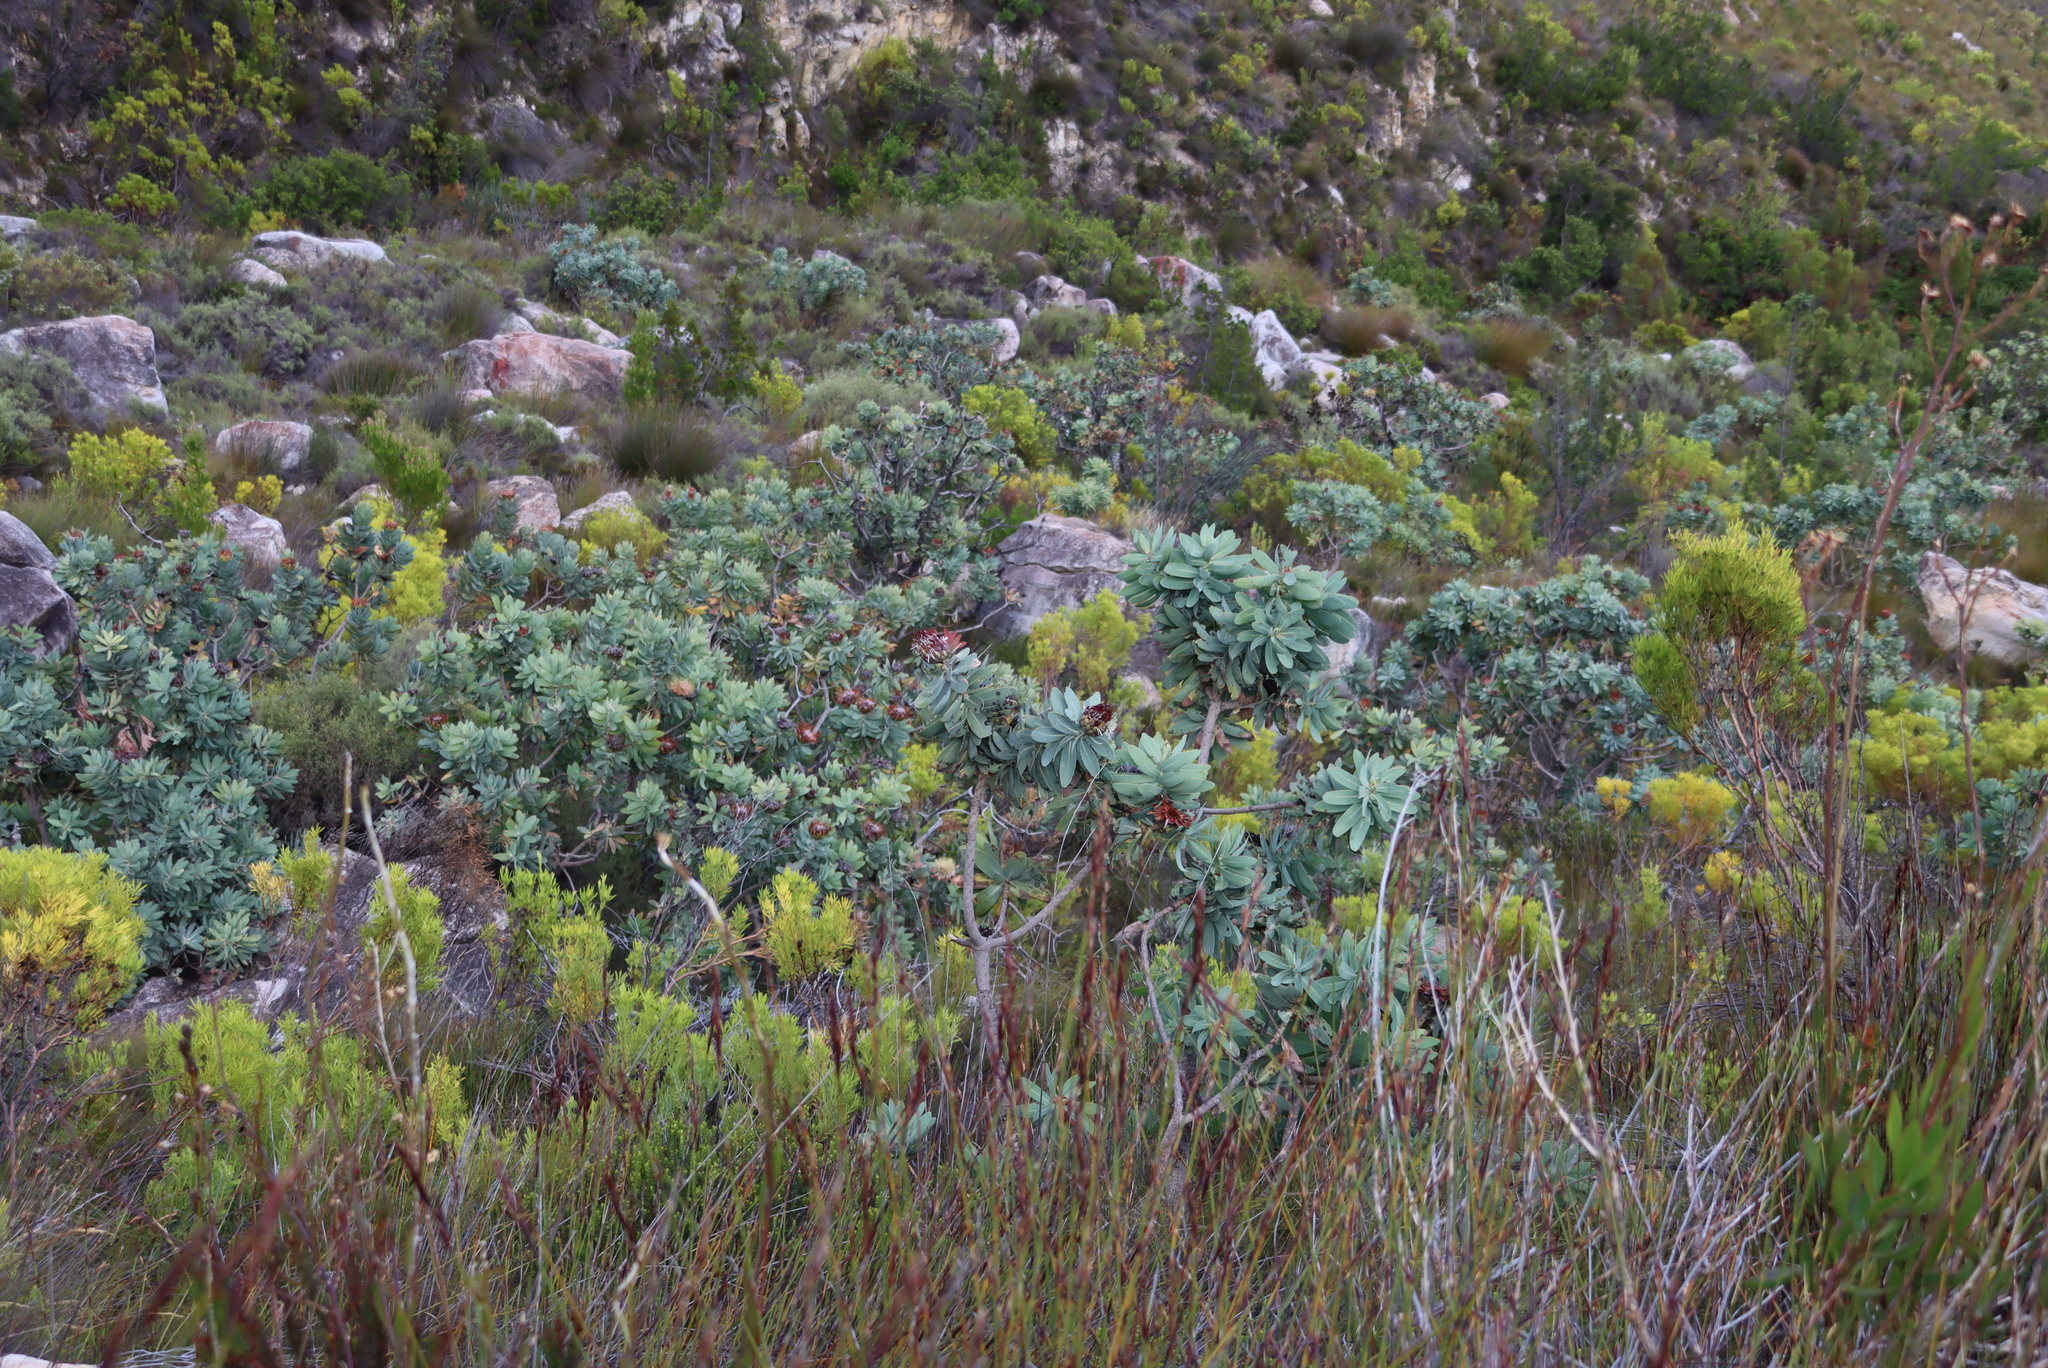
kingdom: Plantae
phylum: Tracheophyta
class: Magnoliopsida
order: Proteales
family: Proteaceae
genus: Protea
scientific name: Protea nitida
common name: Tree protea
